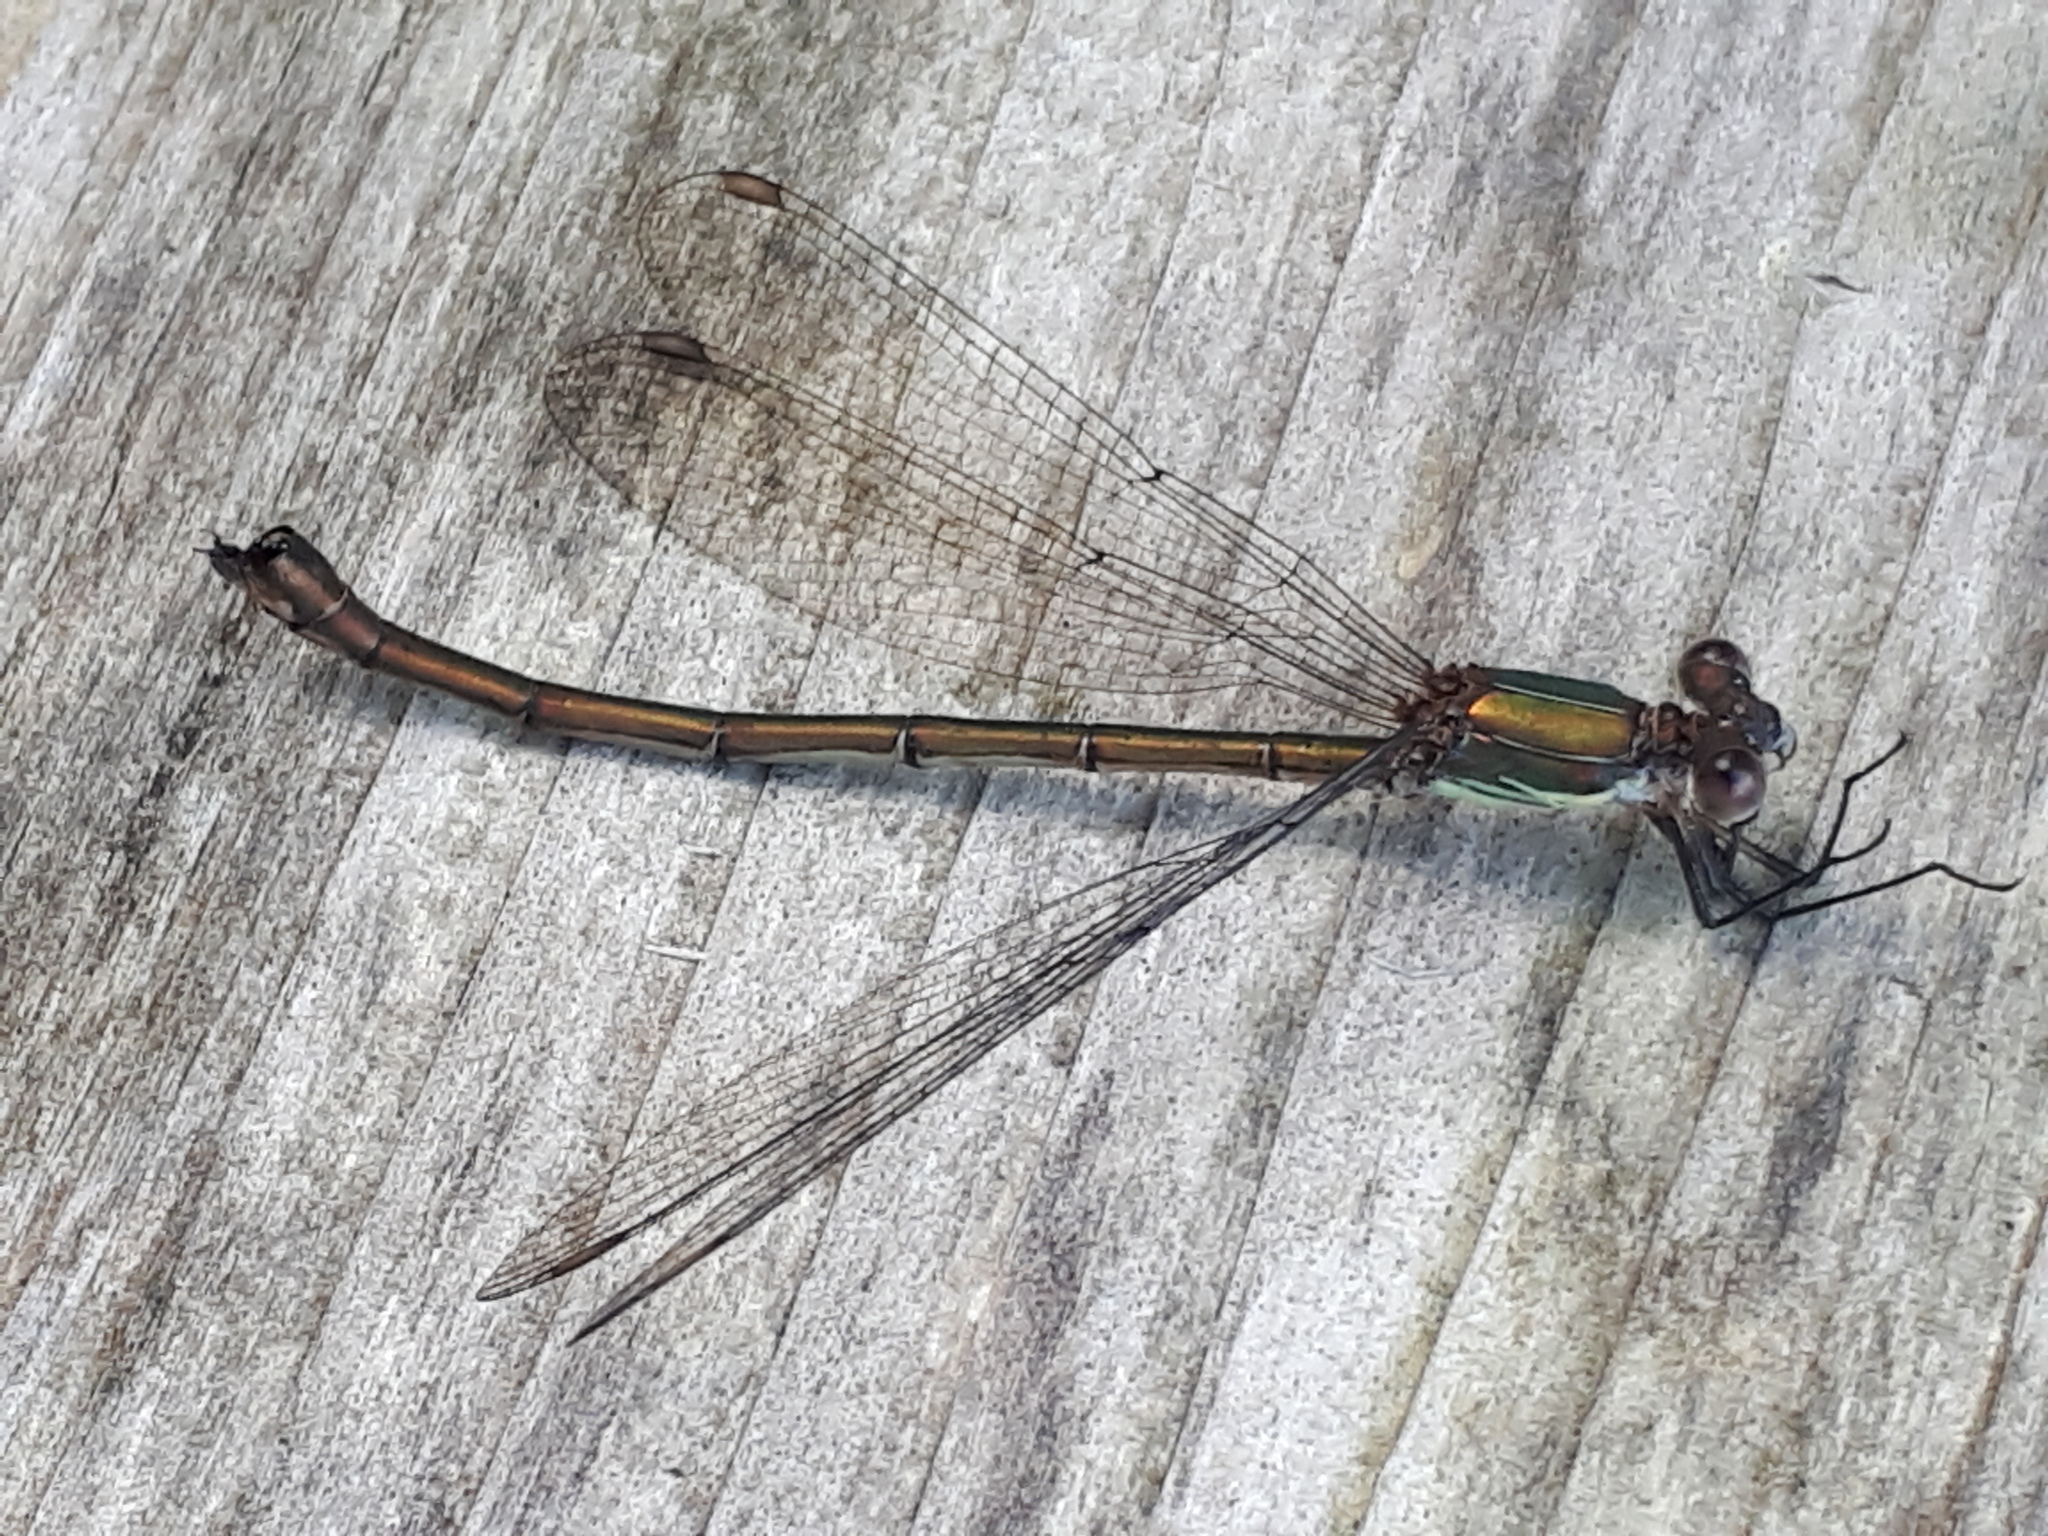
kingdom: Animalia
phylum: Arthropoda
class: Insecta
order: Odonata
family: Lestidae
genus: Chalcolestes
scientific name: Chalcolestes viridis
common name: Green emerald damselfly
